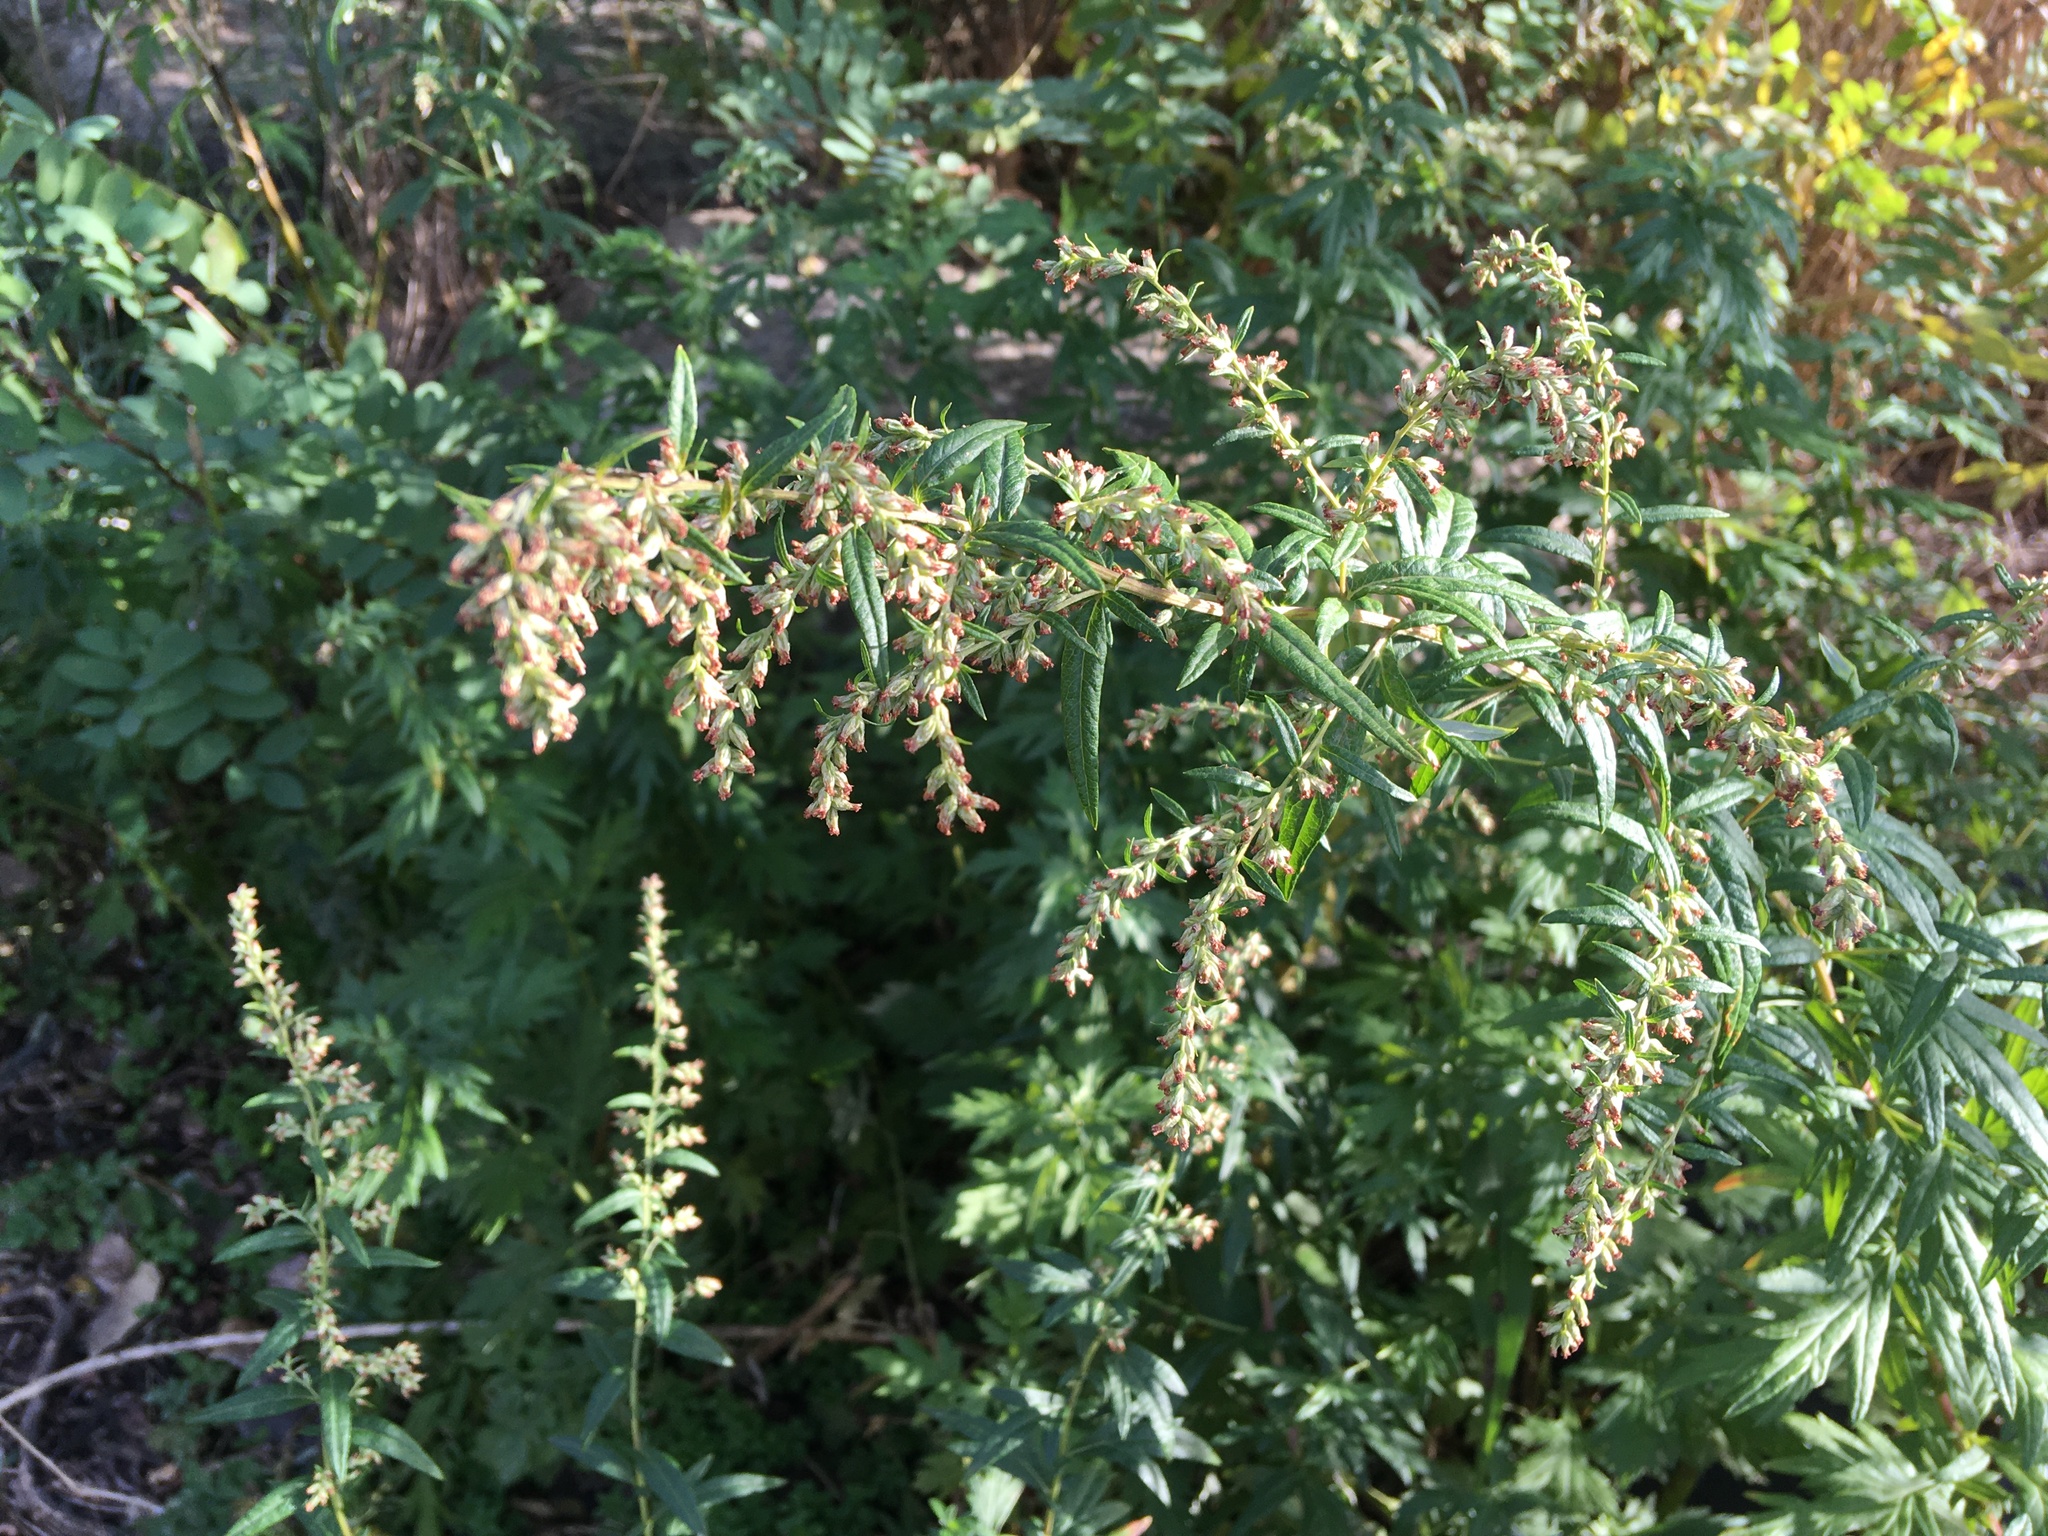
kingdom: Plantae
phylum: Tracheophyta
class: Magnoliopsida
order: Asterales
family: Asteraceae
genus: Artemisia
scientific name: Artemisia vulgaris
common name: Mugwort
